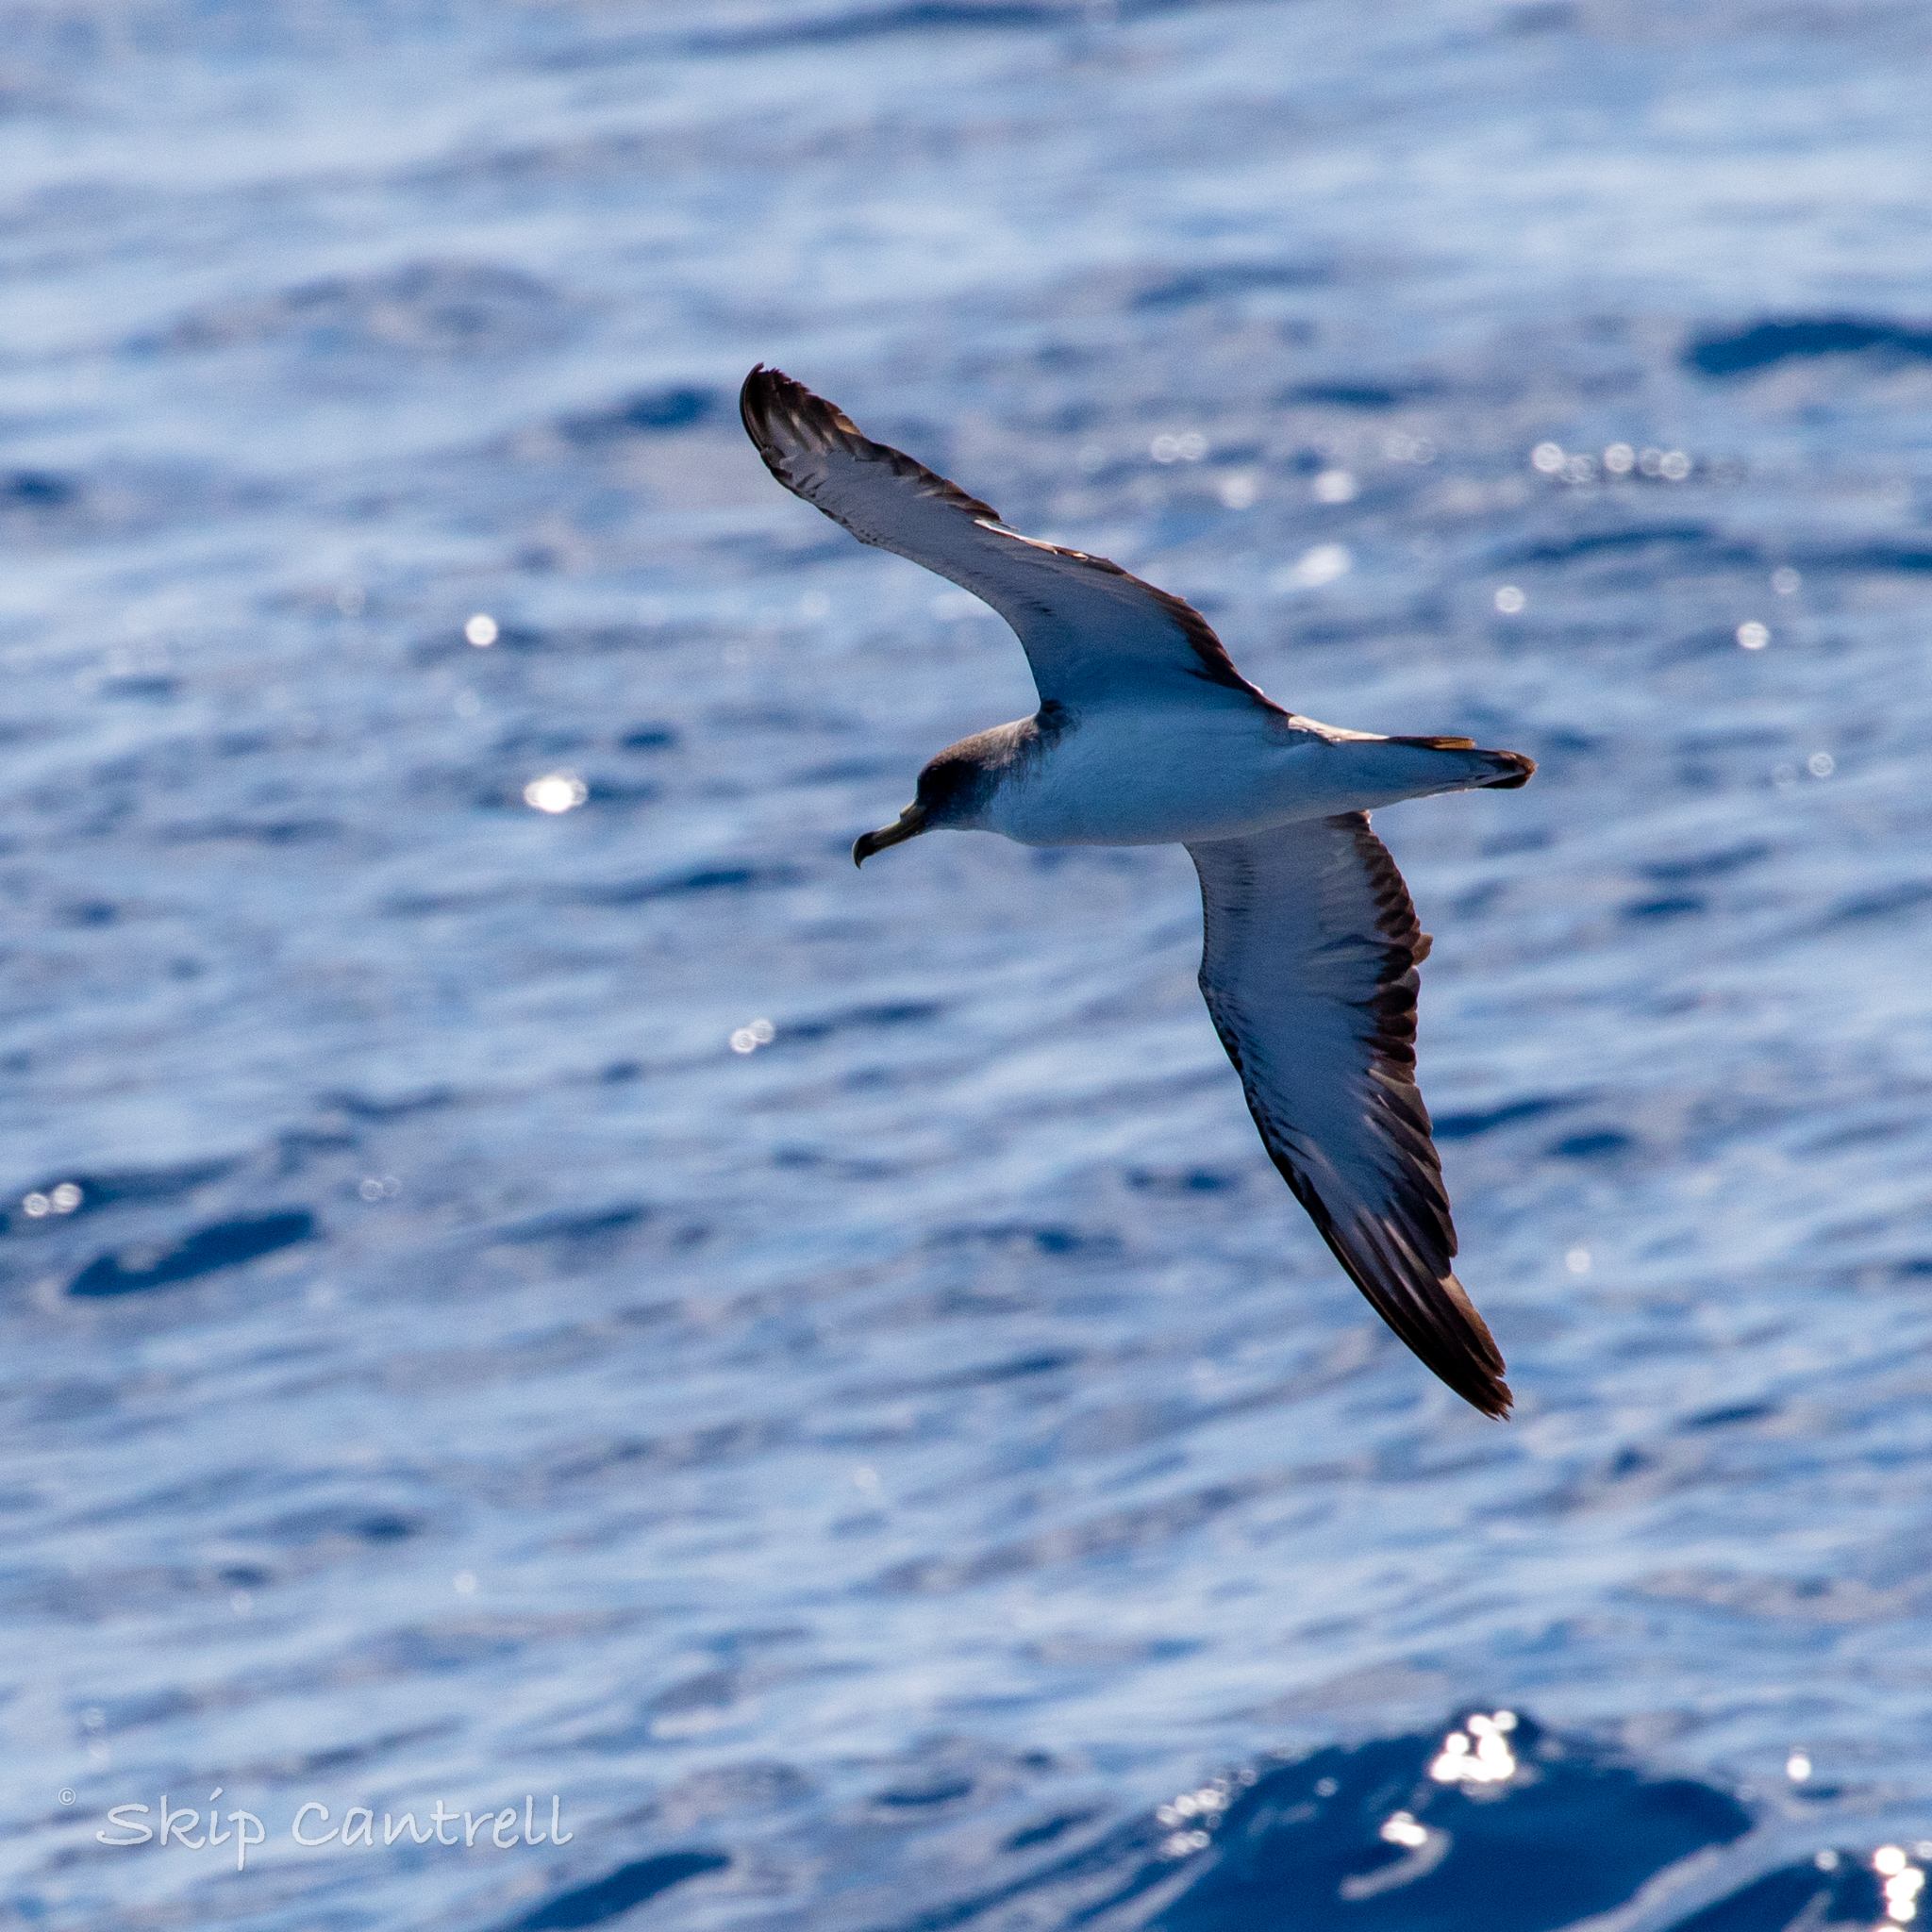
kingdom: Animalia
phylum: Chordata
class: Aves
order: Procellariiformes
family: Procellariidae
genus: Calonectris
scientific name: Calonectris diomedea
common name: Cory's shearwater
